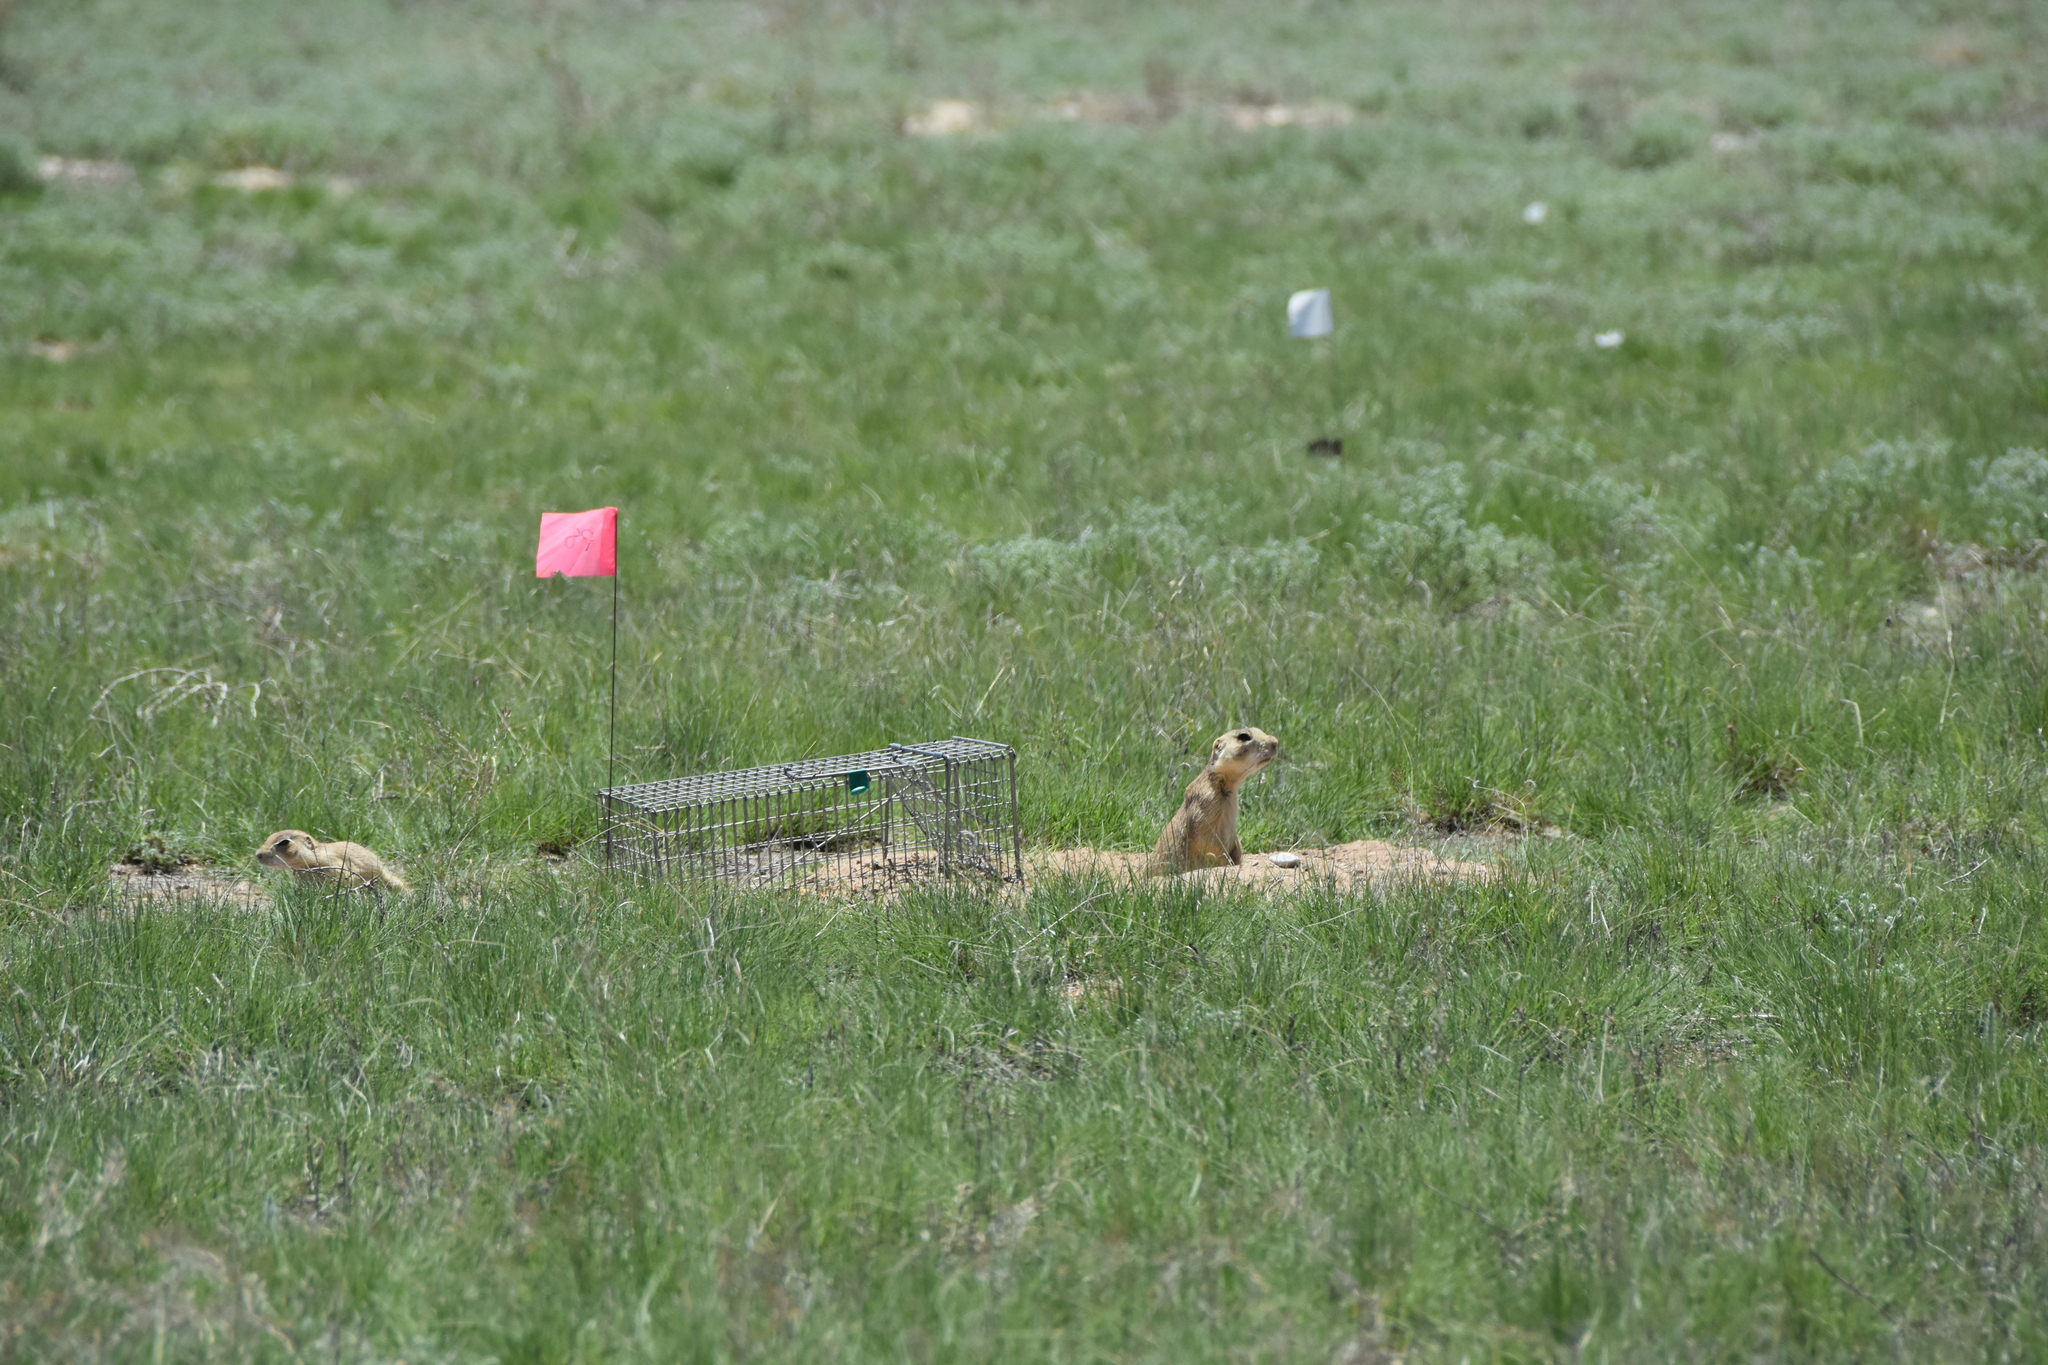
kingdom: Animalia
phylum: Chordata
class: Mammalia
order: Rodentia
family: Sciuridae
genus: Cynomys
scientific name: Cynomys gunnisoni
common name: Gunnison's prairie dog
